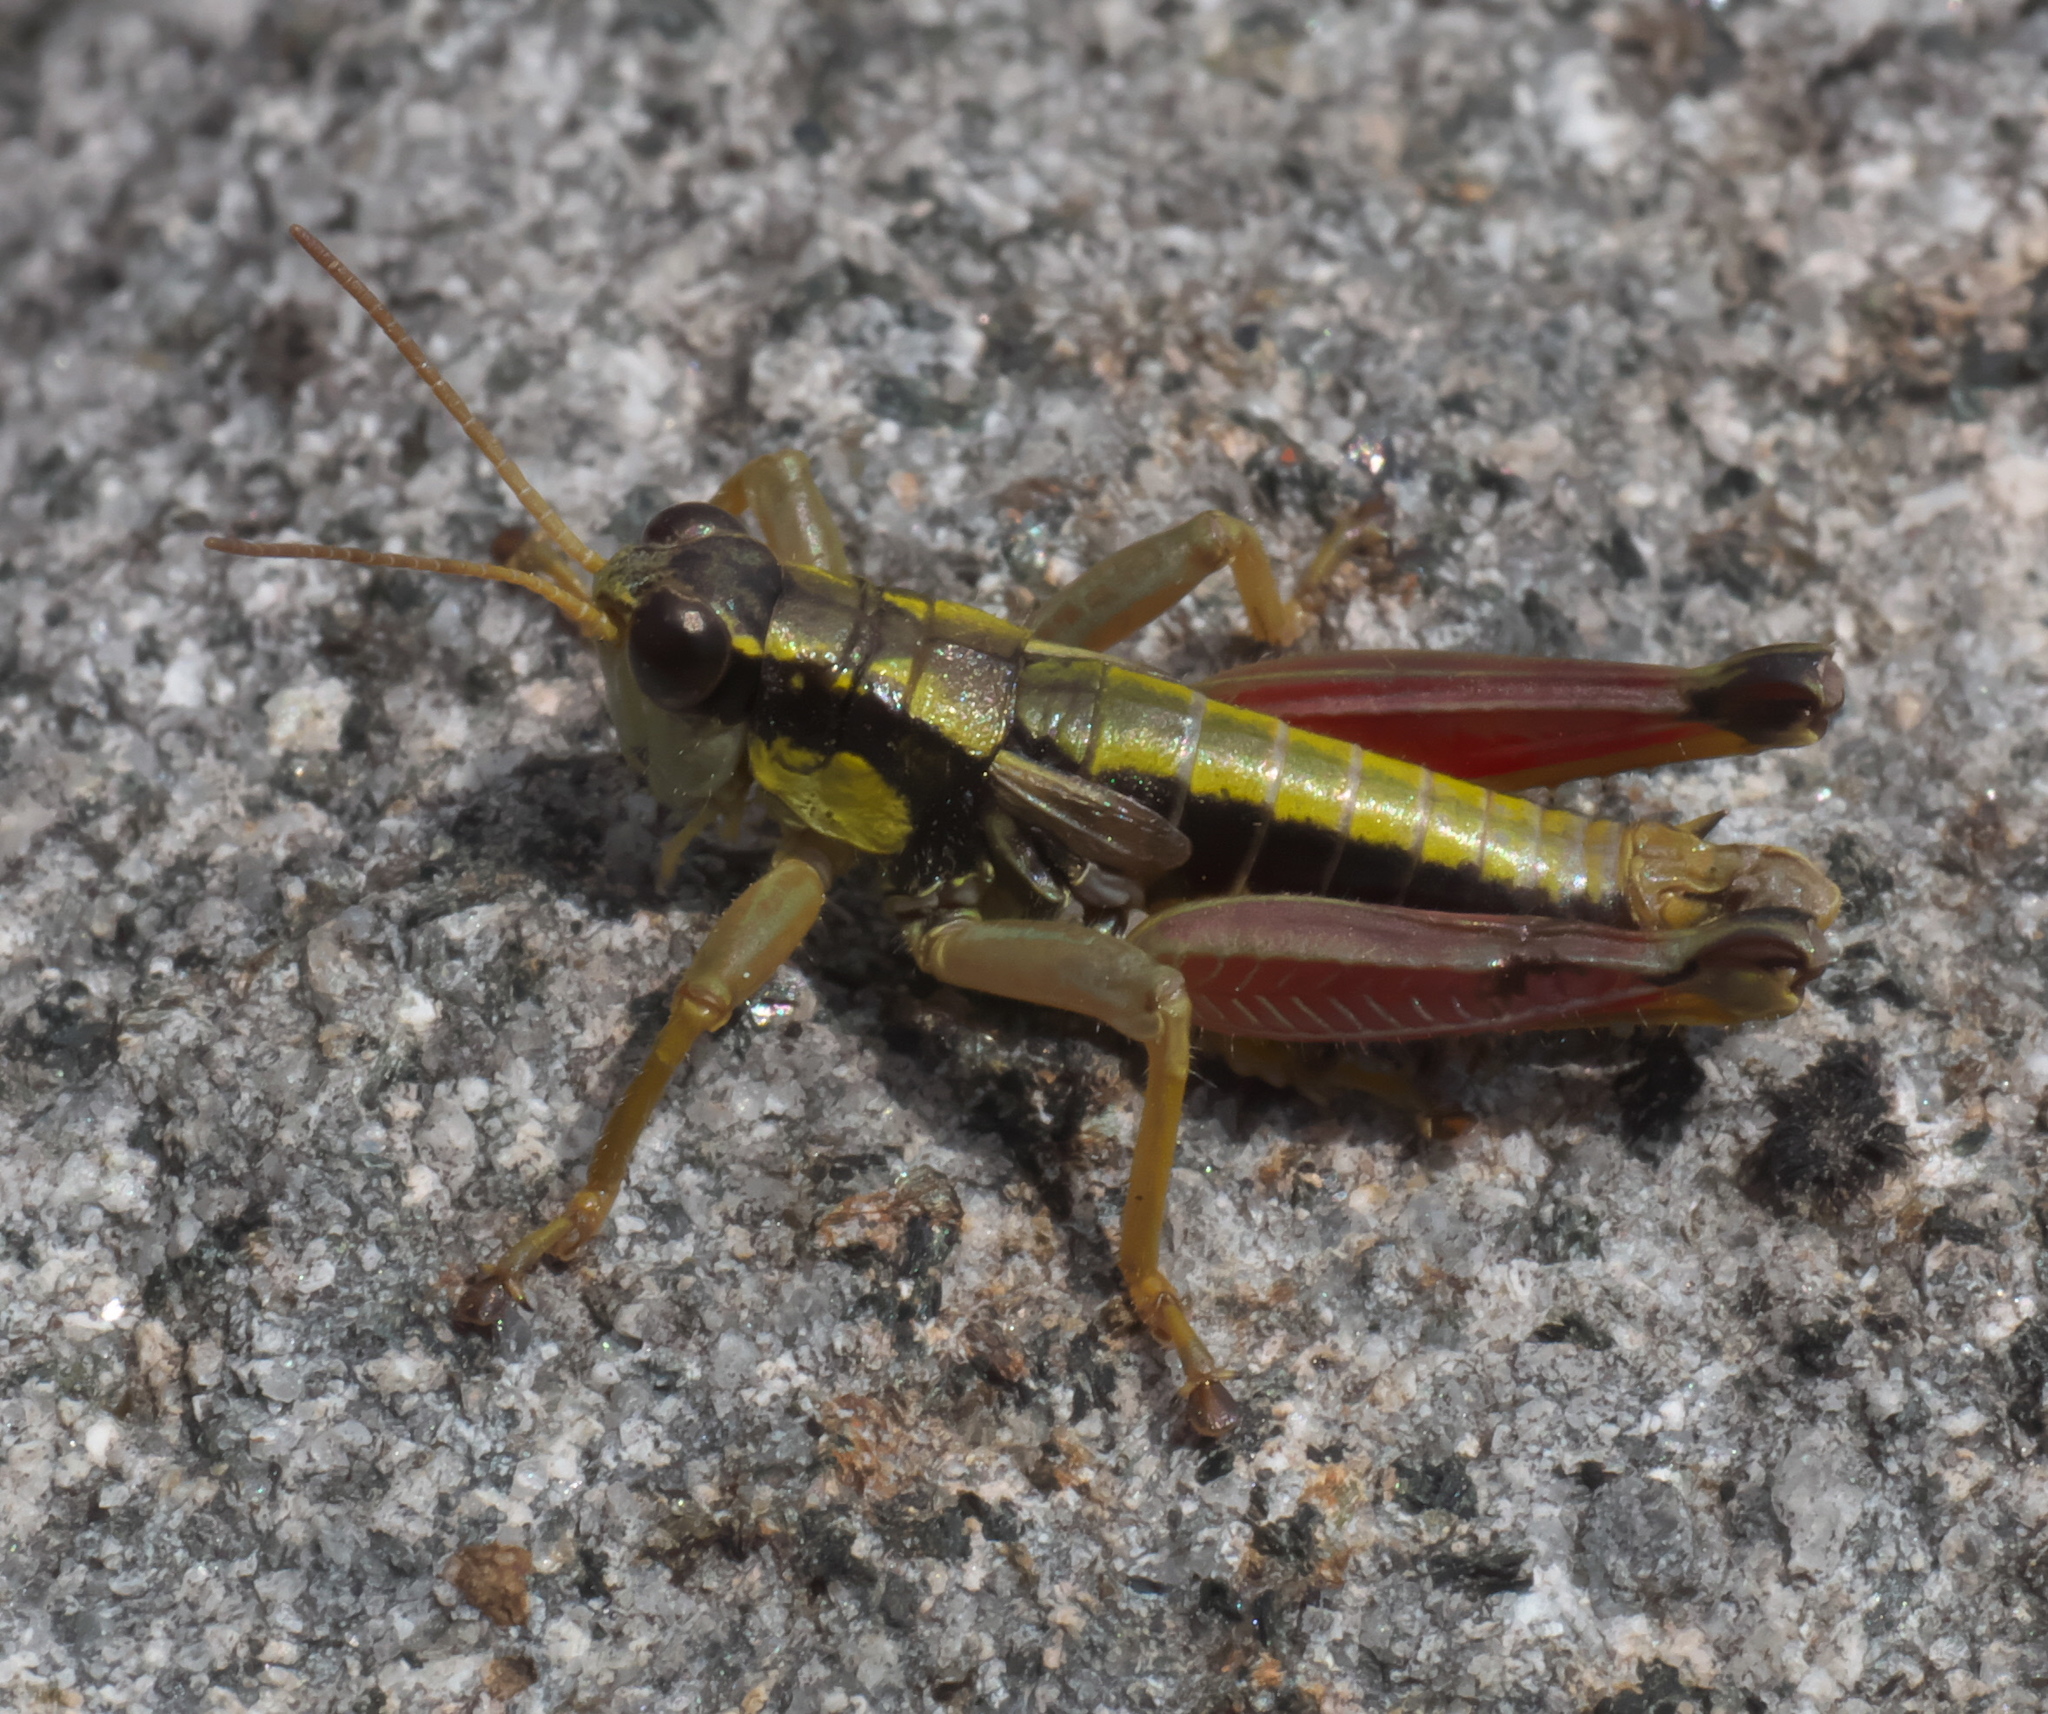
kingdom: Animalia
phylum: Arthropoda
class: Insecta
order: Orthoptera
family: Acrididae
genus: Prumnacris
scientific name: Prumnacris rainierensis
